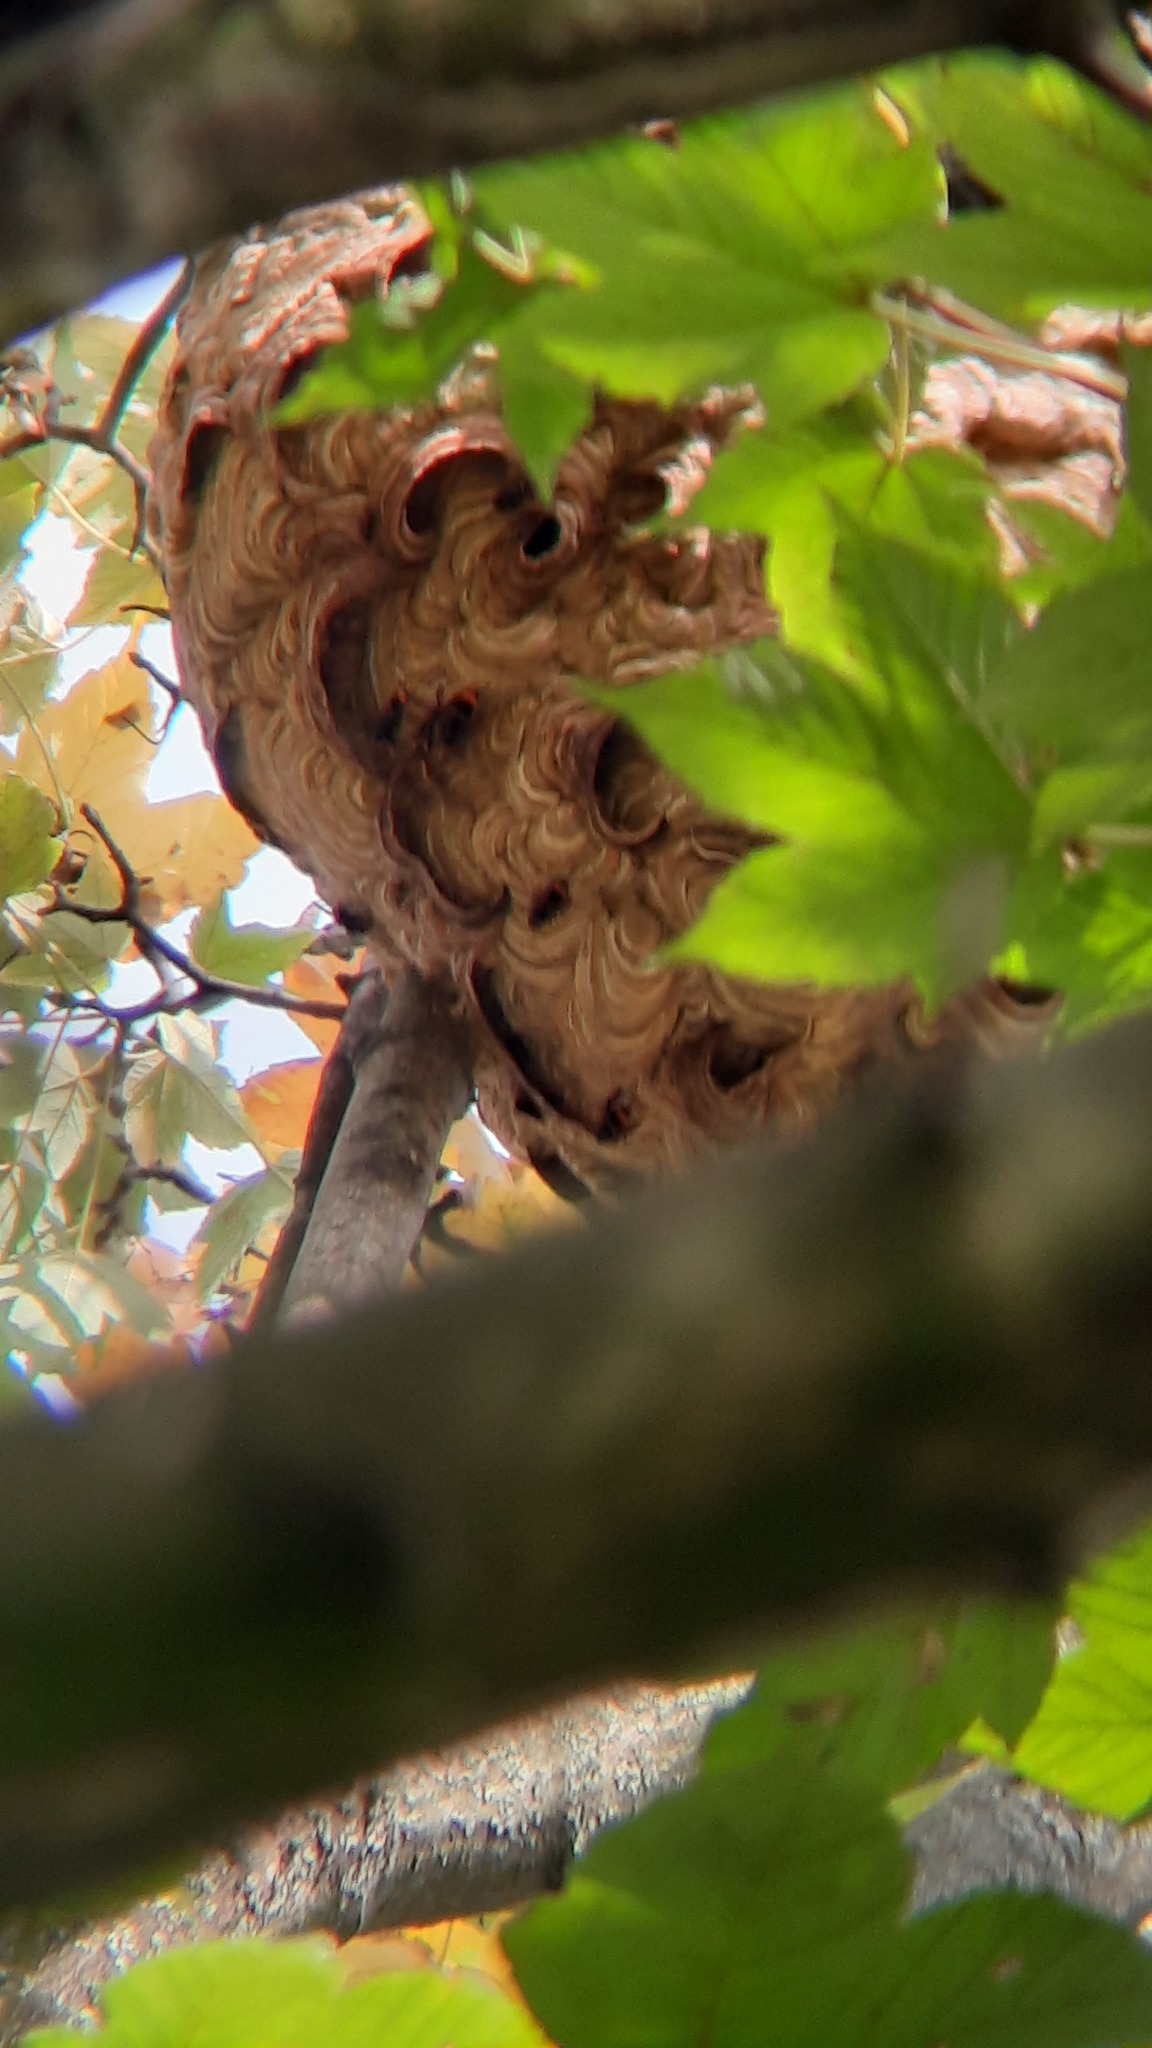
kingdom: Animalia
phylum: Arthropoda
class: Insecta
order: Hymenoptera
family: Vespidae
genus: Vespa
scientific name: Vespa velutina
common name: Asian hornet
